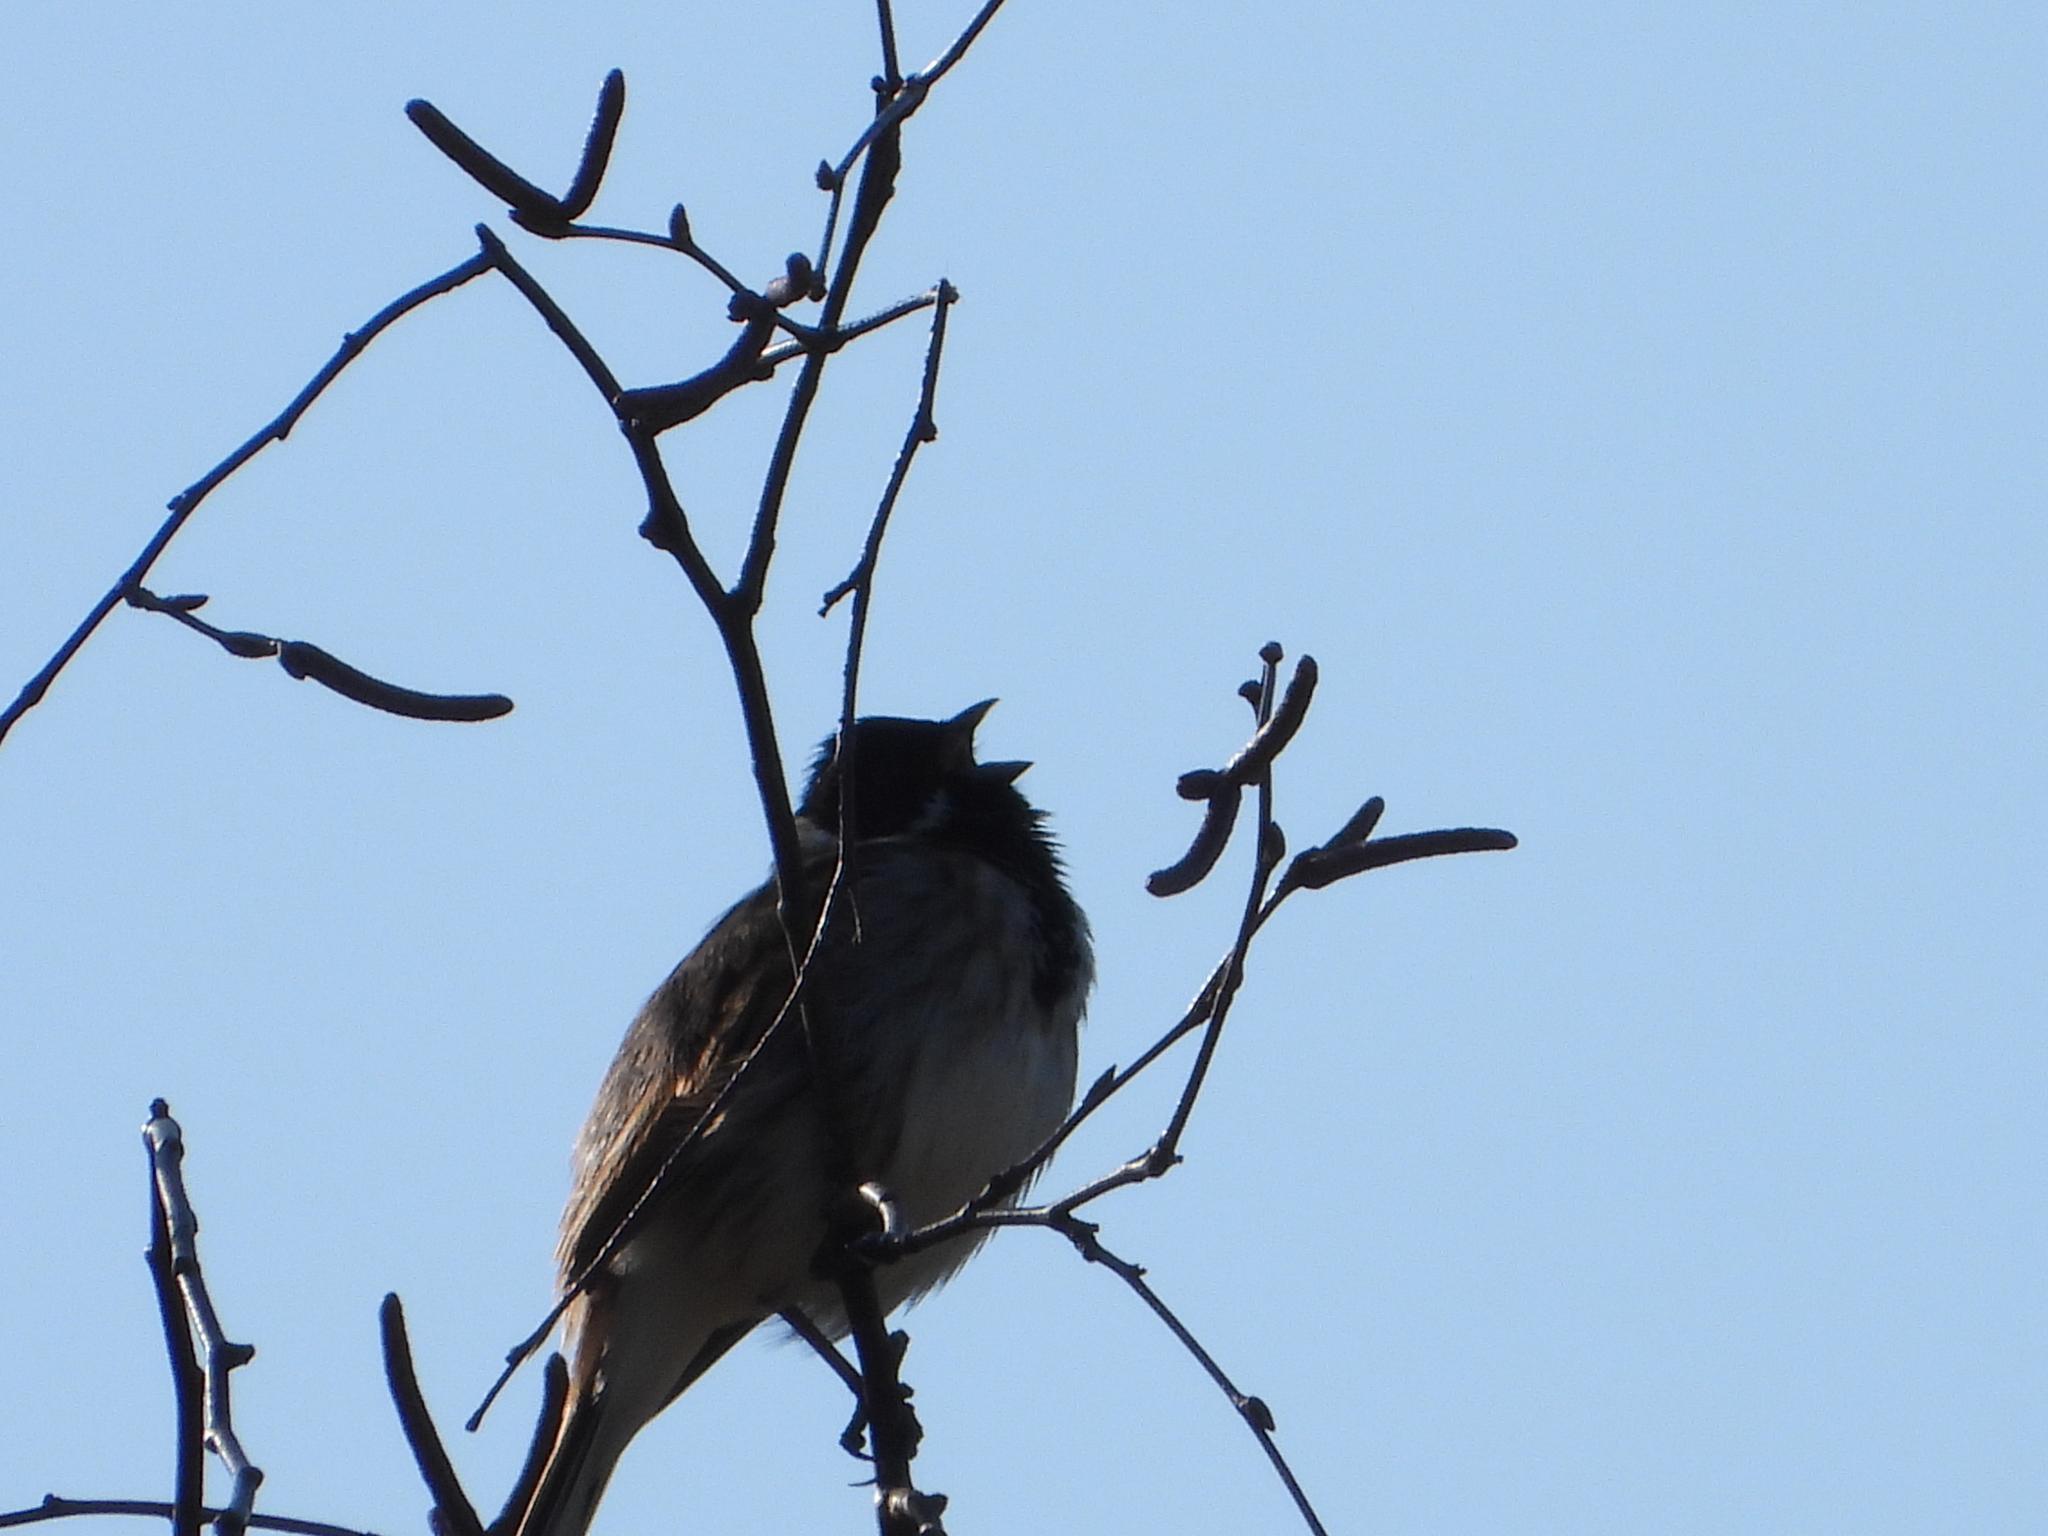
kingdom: Animalia
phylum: Chordata
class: Aves
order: Passeriformes
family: Emberizidae
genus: Emberiza
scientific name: Emberiza schoeniclus
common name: Reed bunting
